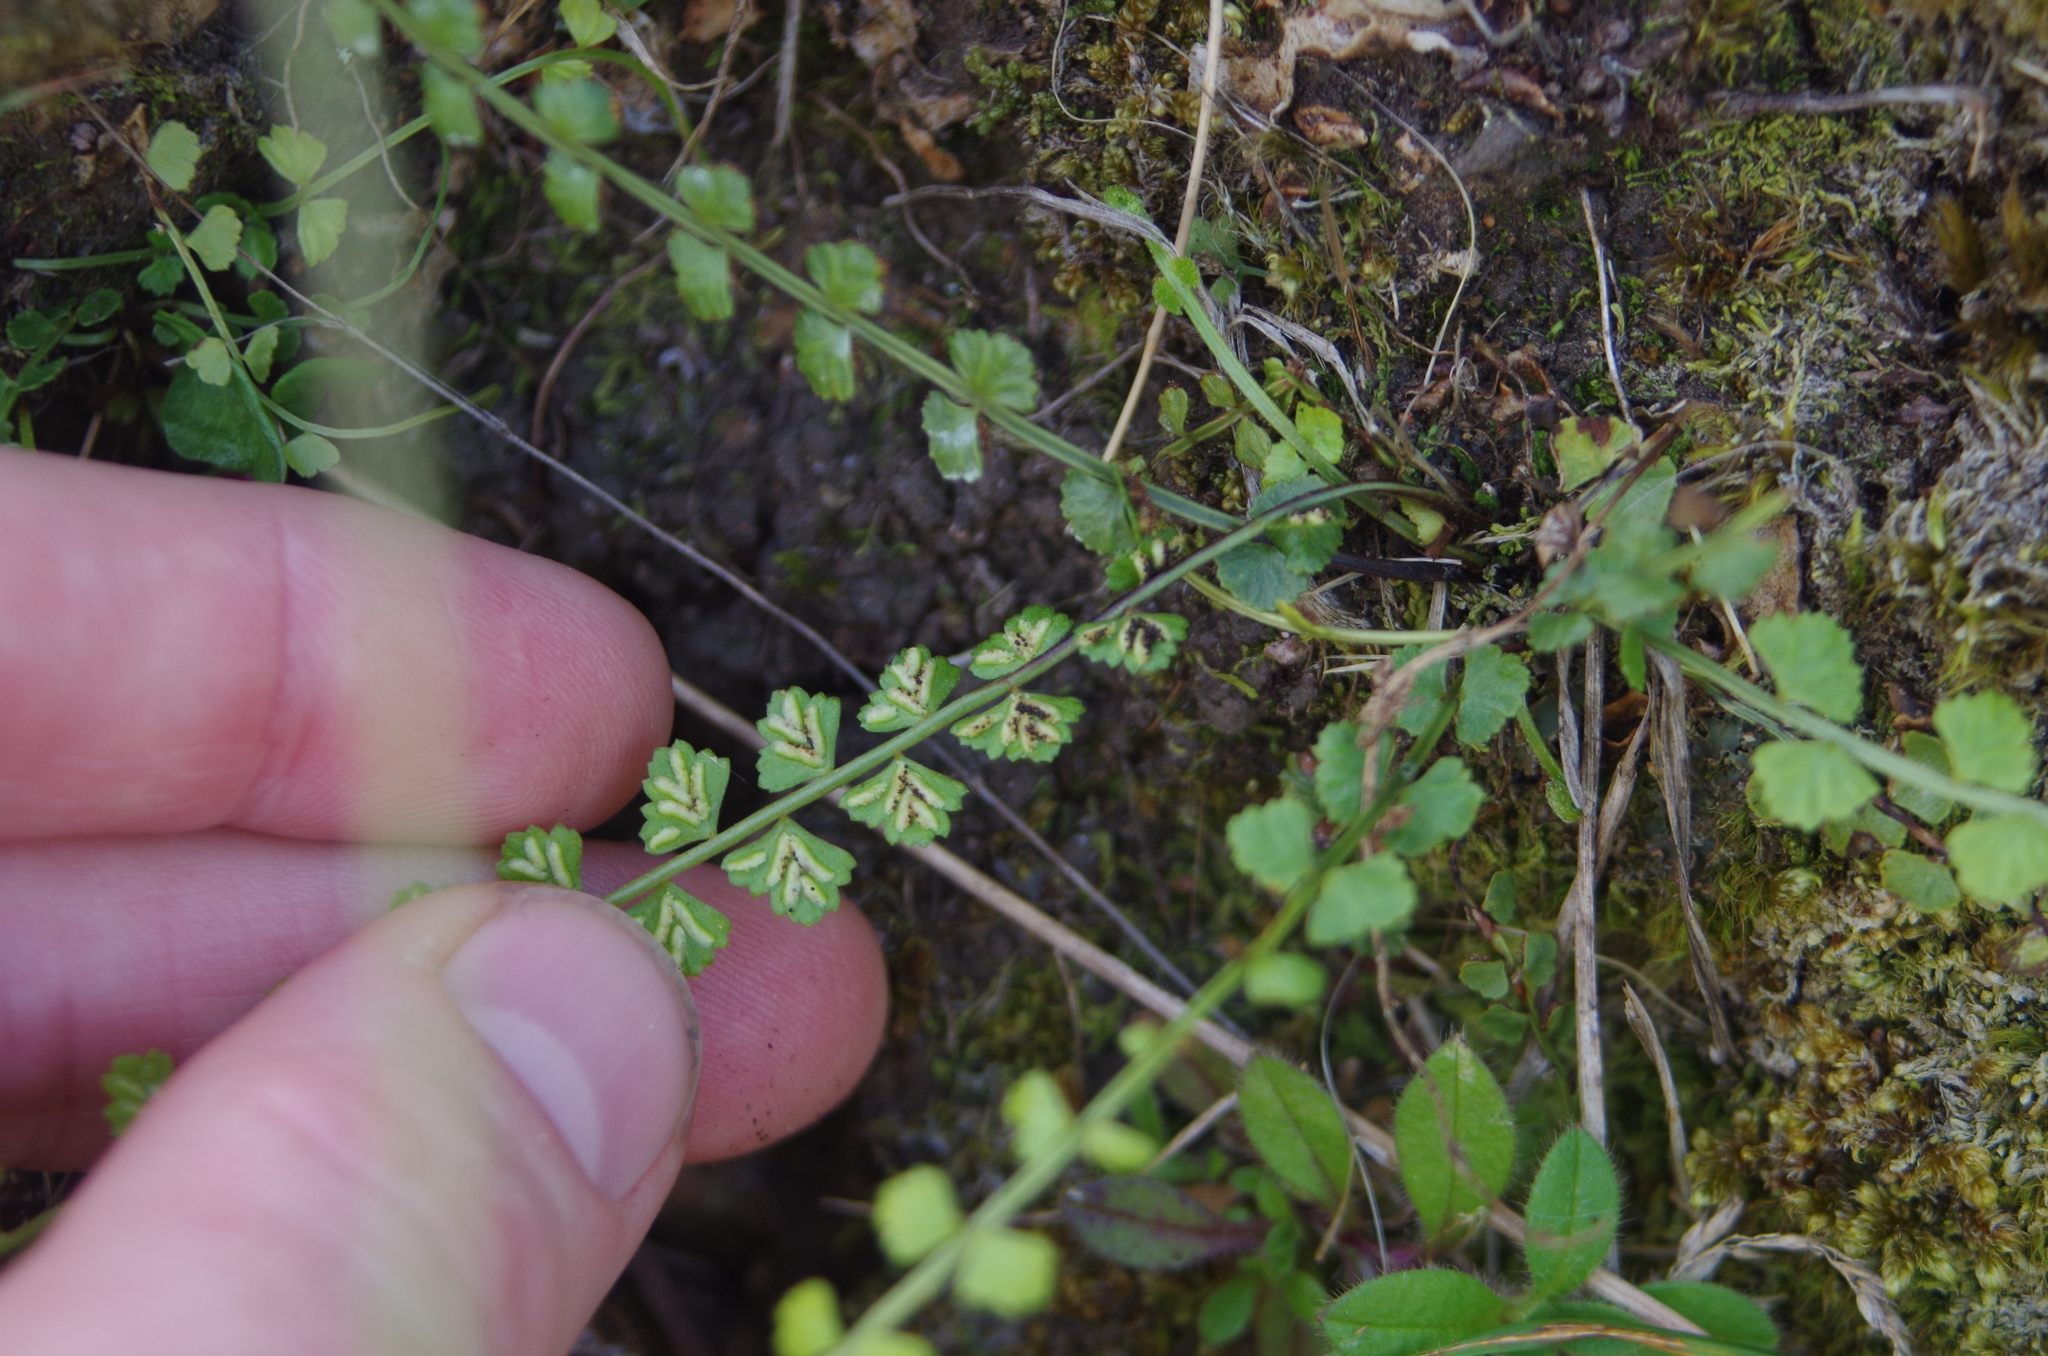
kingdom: Plantae
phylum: Tracheophyta
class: Polypodiopsida
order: Polypodiales
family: Aspleniaceae
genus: Asplenium
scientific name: Asplenium flabellifolium
